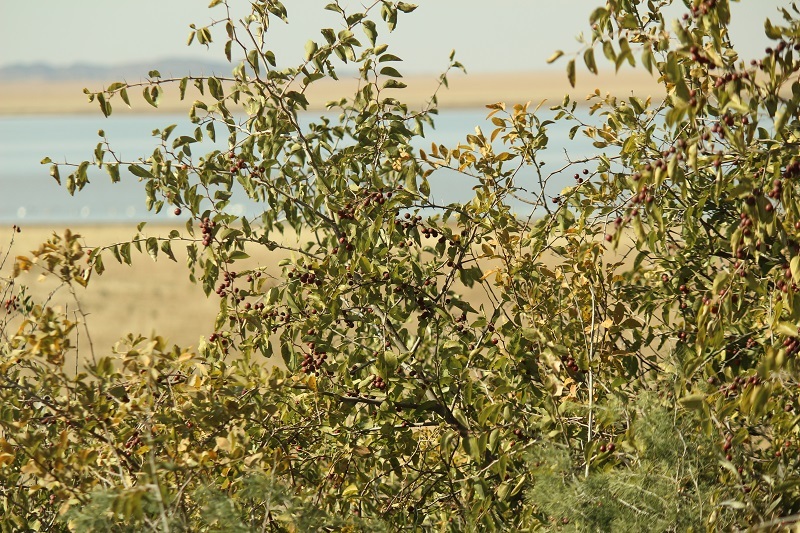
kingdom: Plantae
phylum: Tracheophyta
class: Magnoliopsida
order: Rosales
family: Rhamnaceae
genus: Ziziphus
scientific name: Ziziphus mucronata
